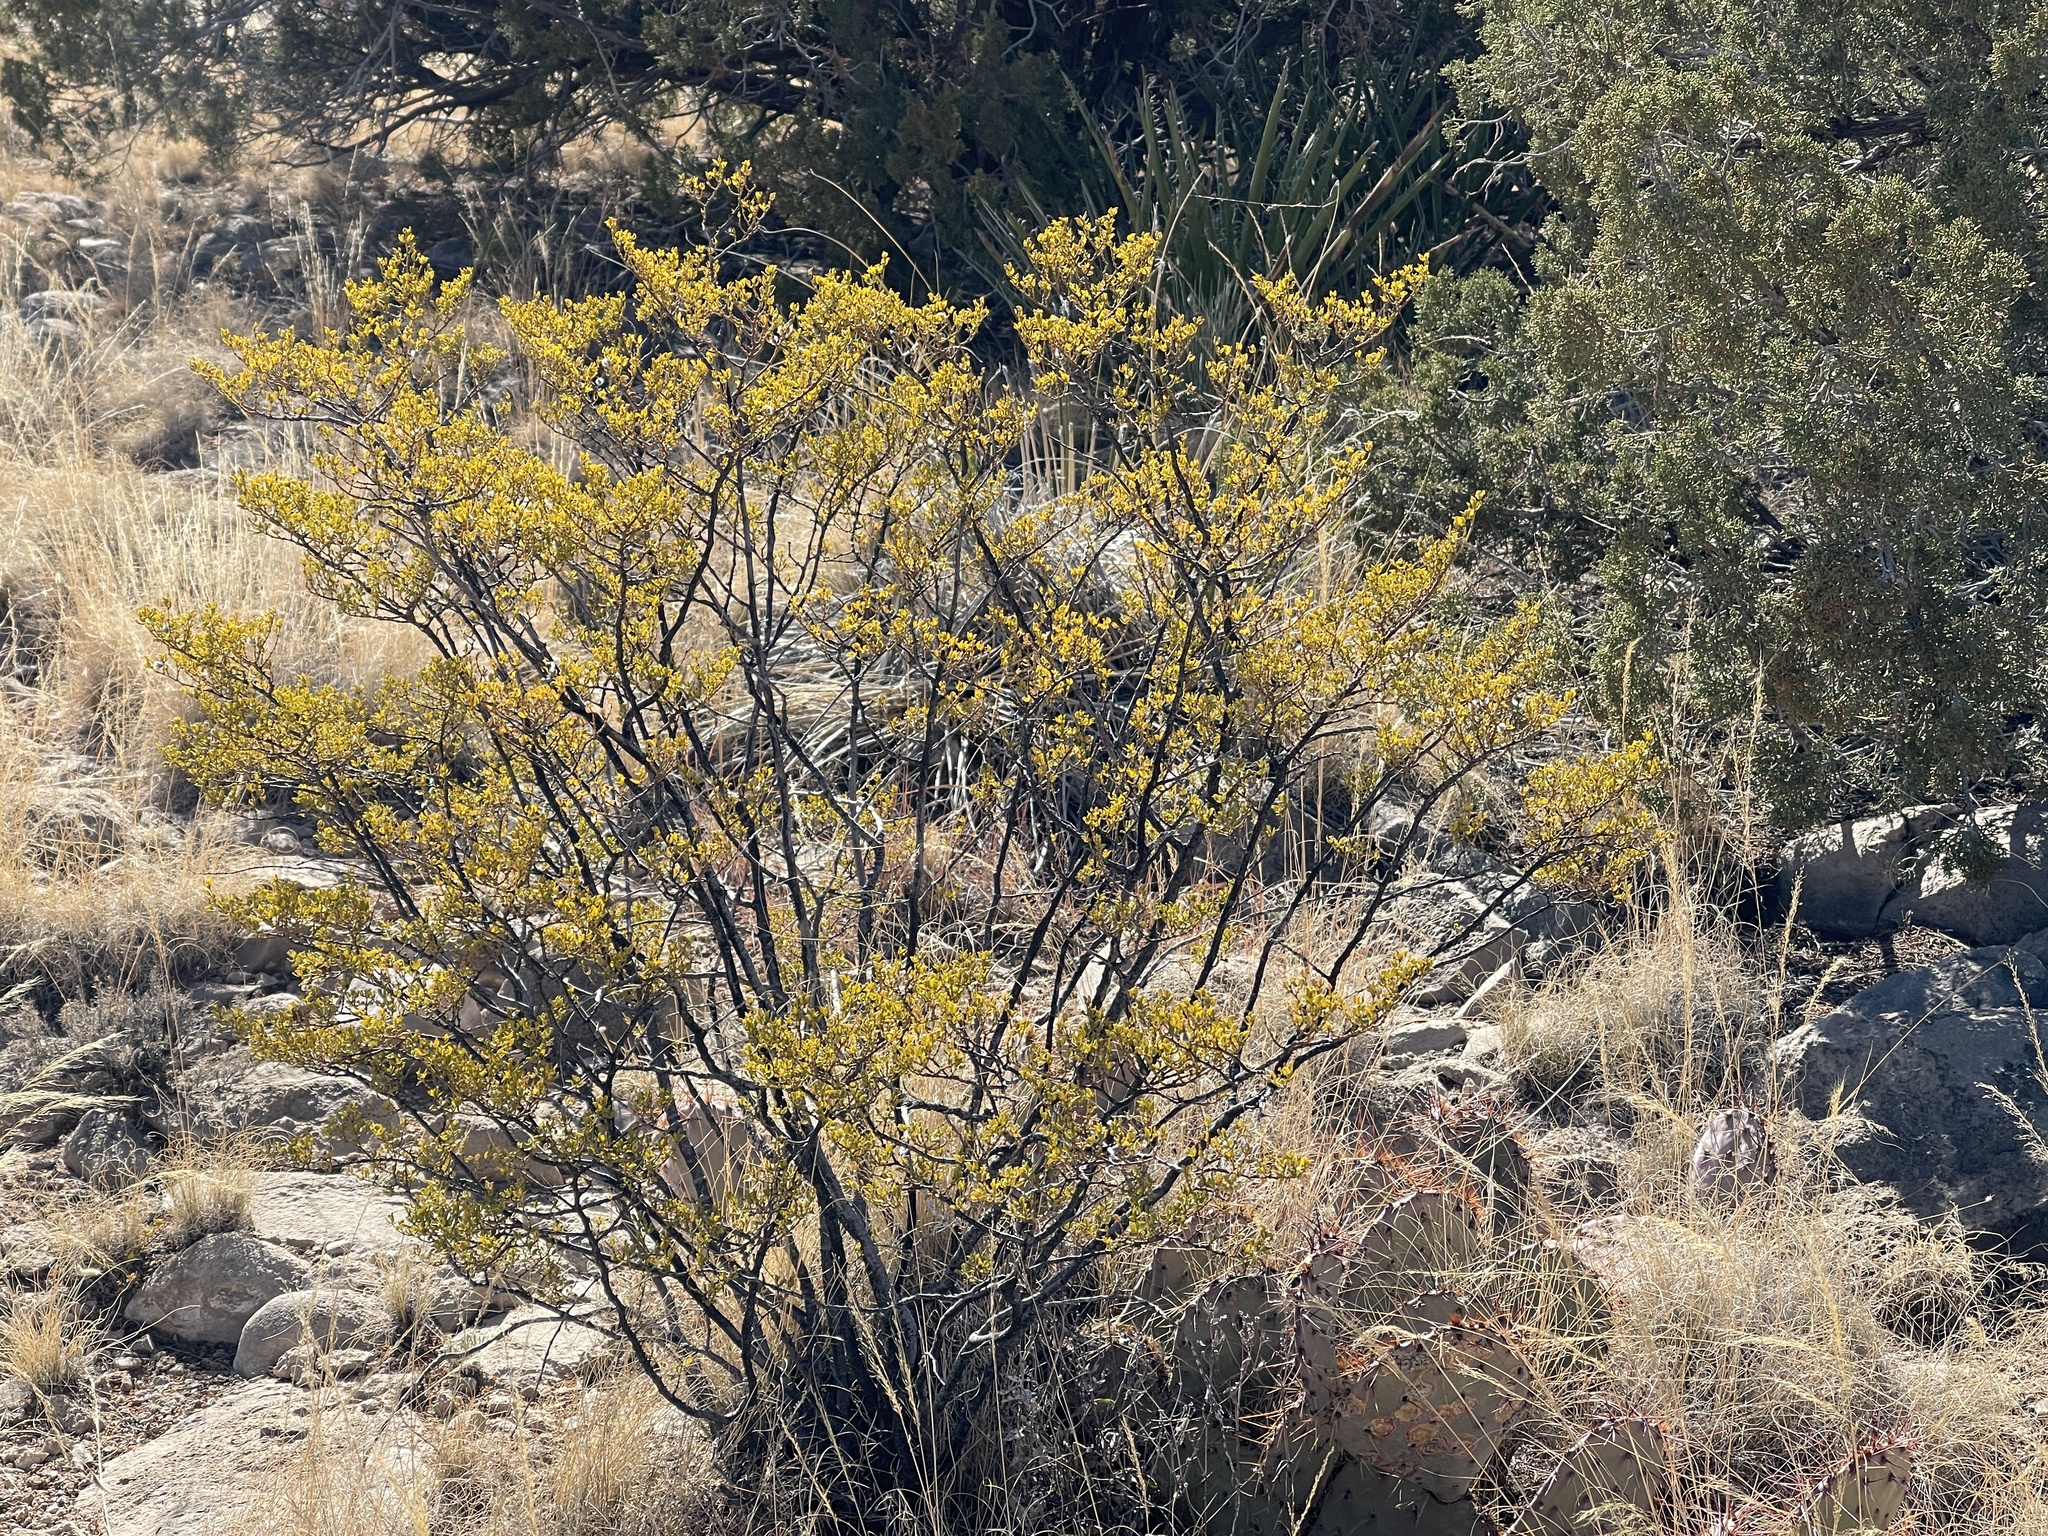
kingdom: Plantae
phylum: Tracheophyta
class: Magnoliopsida
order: Zygophyllales
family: Zygophyllaceae
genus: Larrea
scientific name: Larrea tridentata
